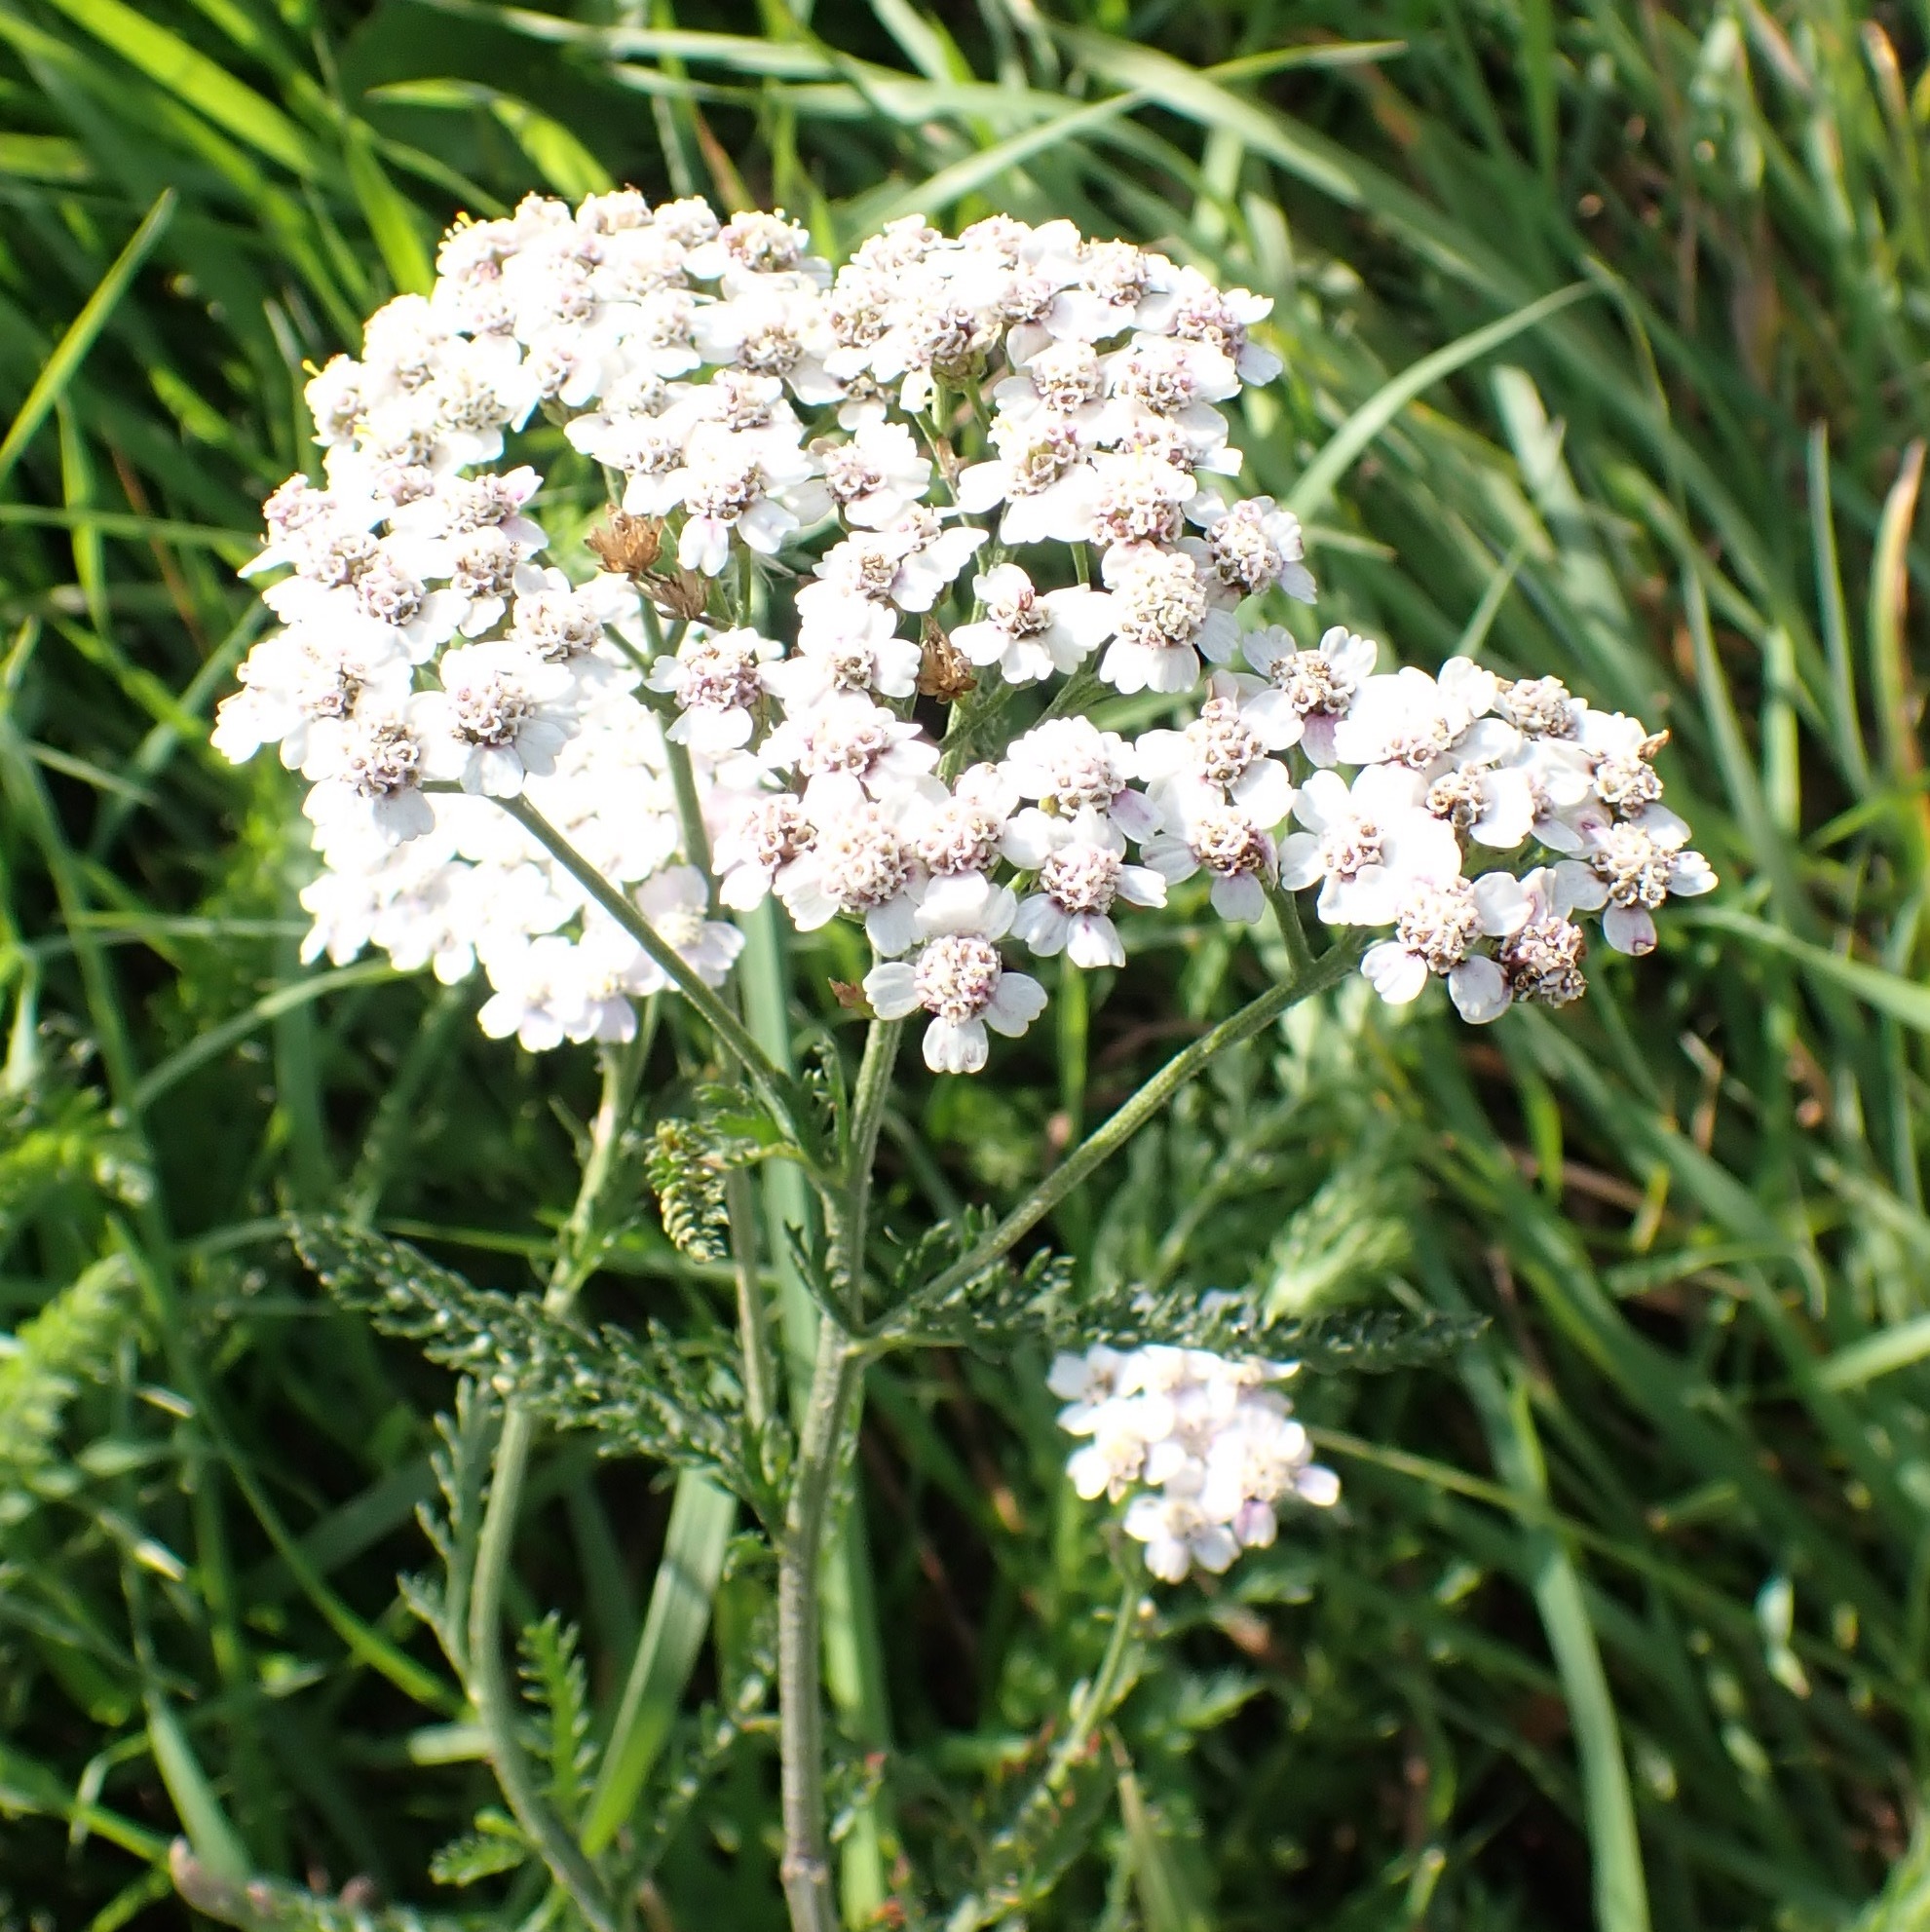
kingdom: Plantae
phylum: Tracheophyta
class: Magnoliopsida
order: Asterales
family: Asteraceae
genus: Achillea
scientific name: Achillea millefolium
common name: Yarrow
